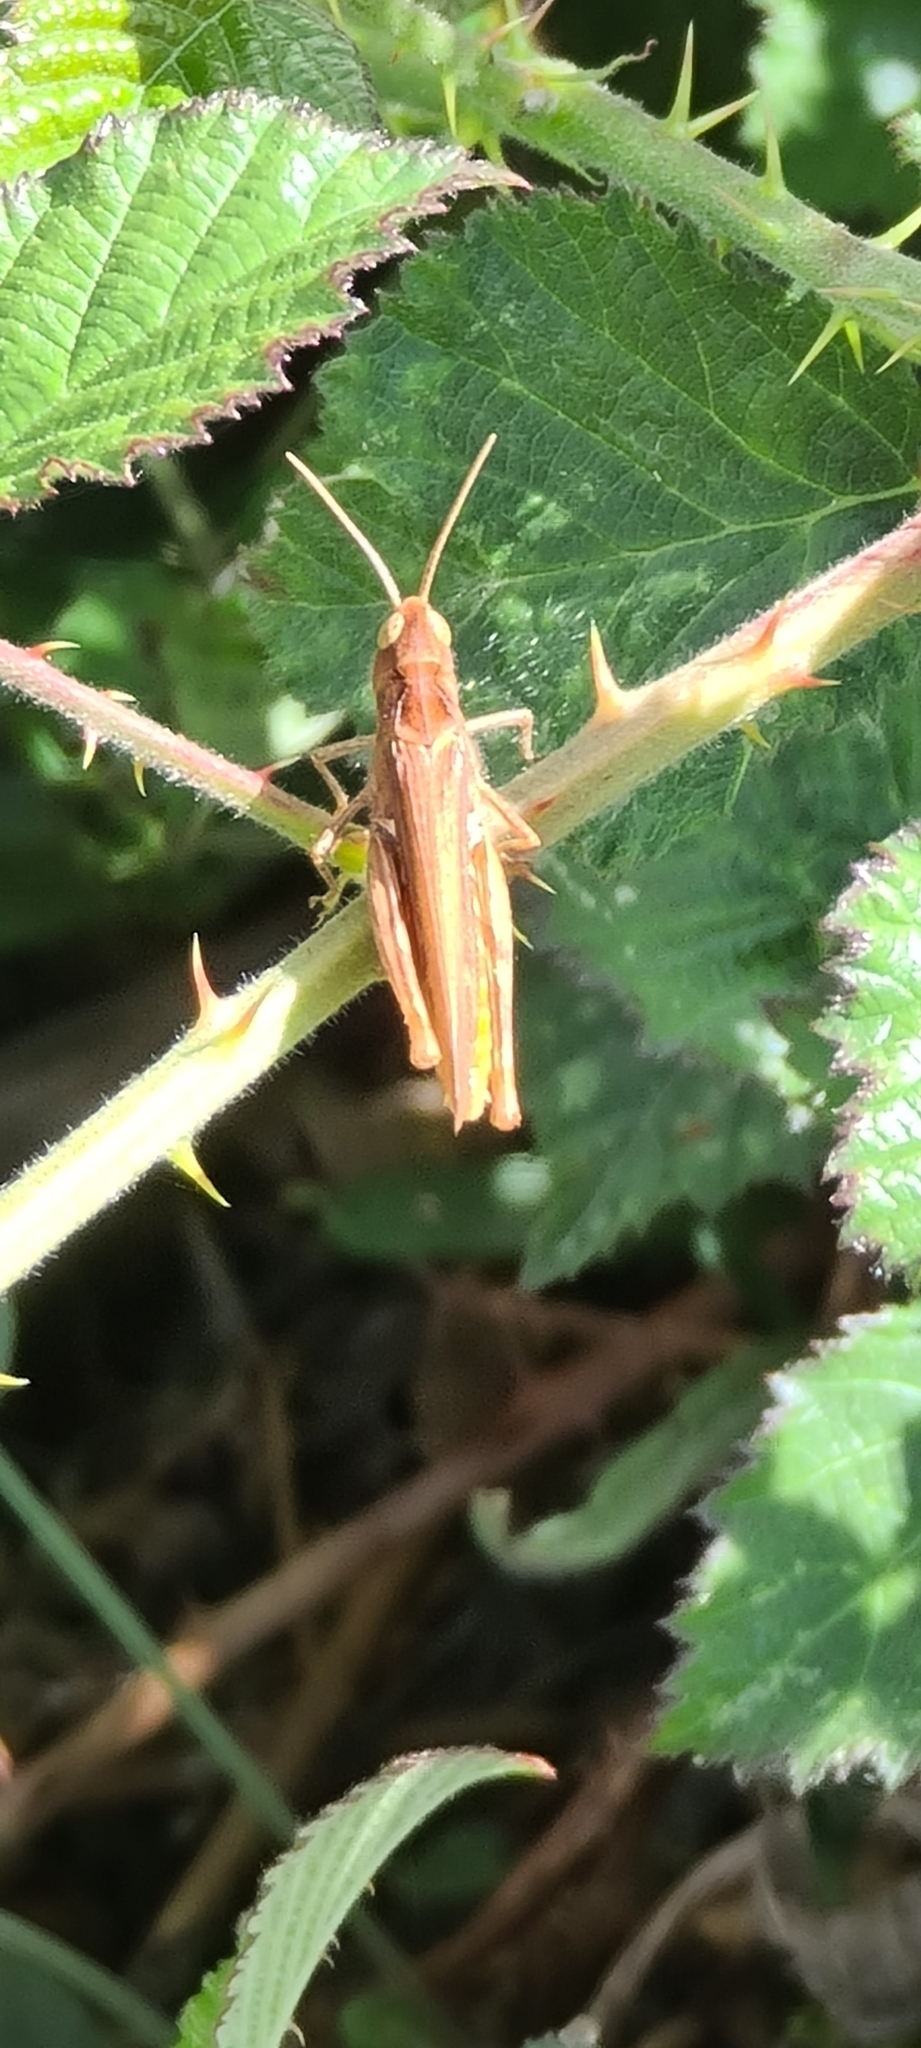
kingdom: Animalia
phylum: Arthropoda
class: Insecta
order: Orthoptera
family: Acrididae
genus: Chorthippus
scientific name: Chorthippus brunneus
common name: Field grasshopper
